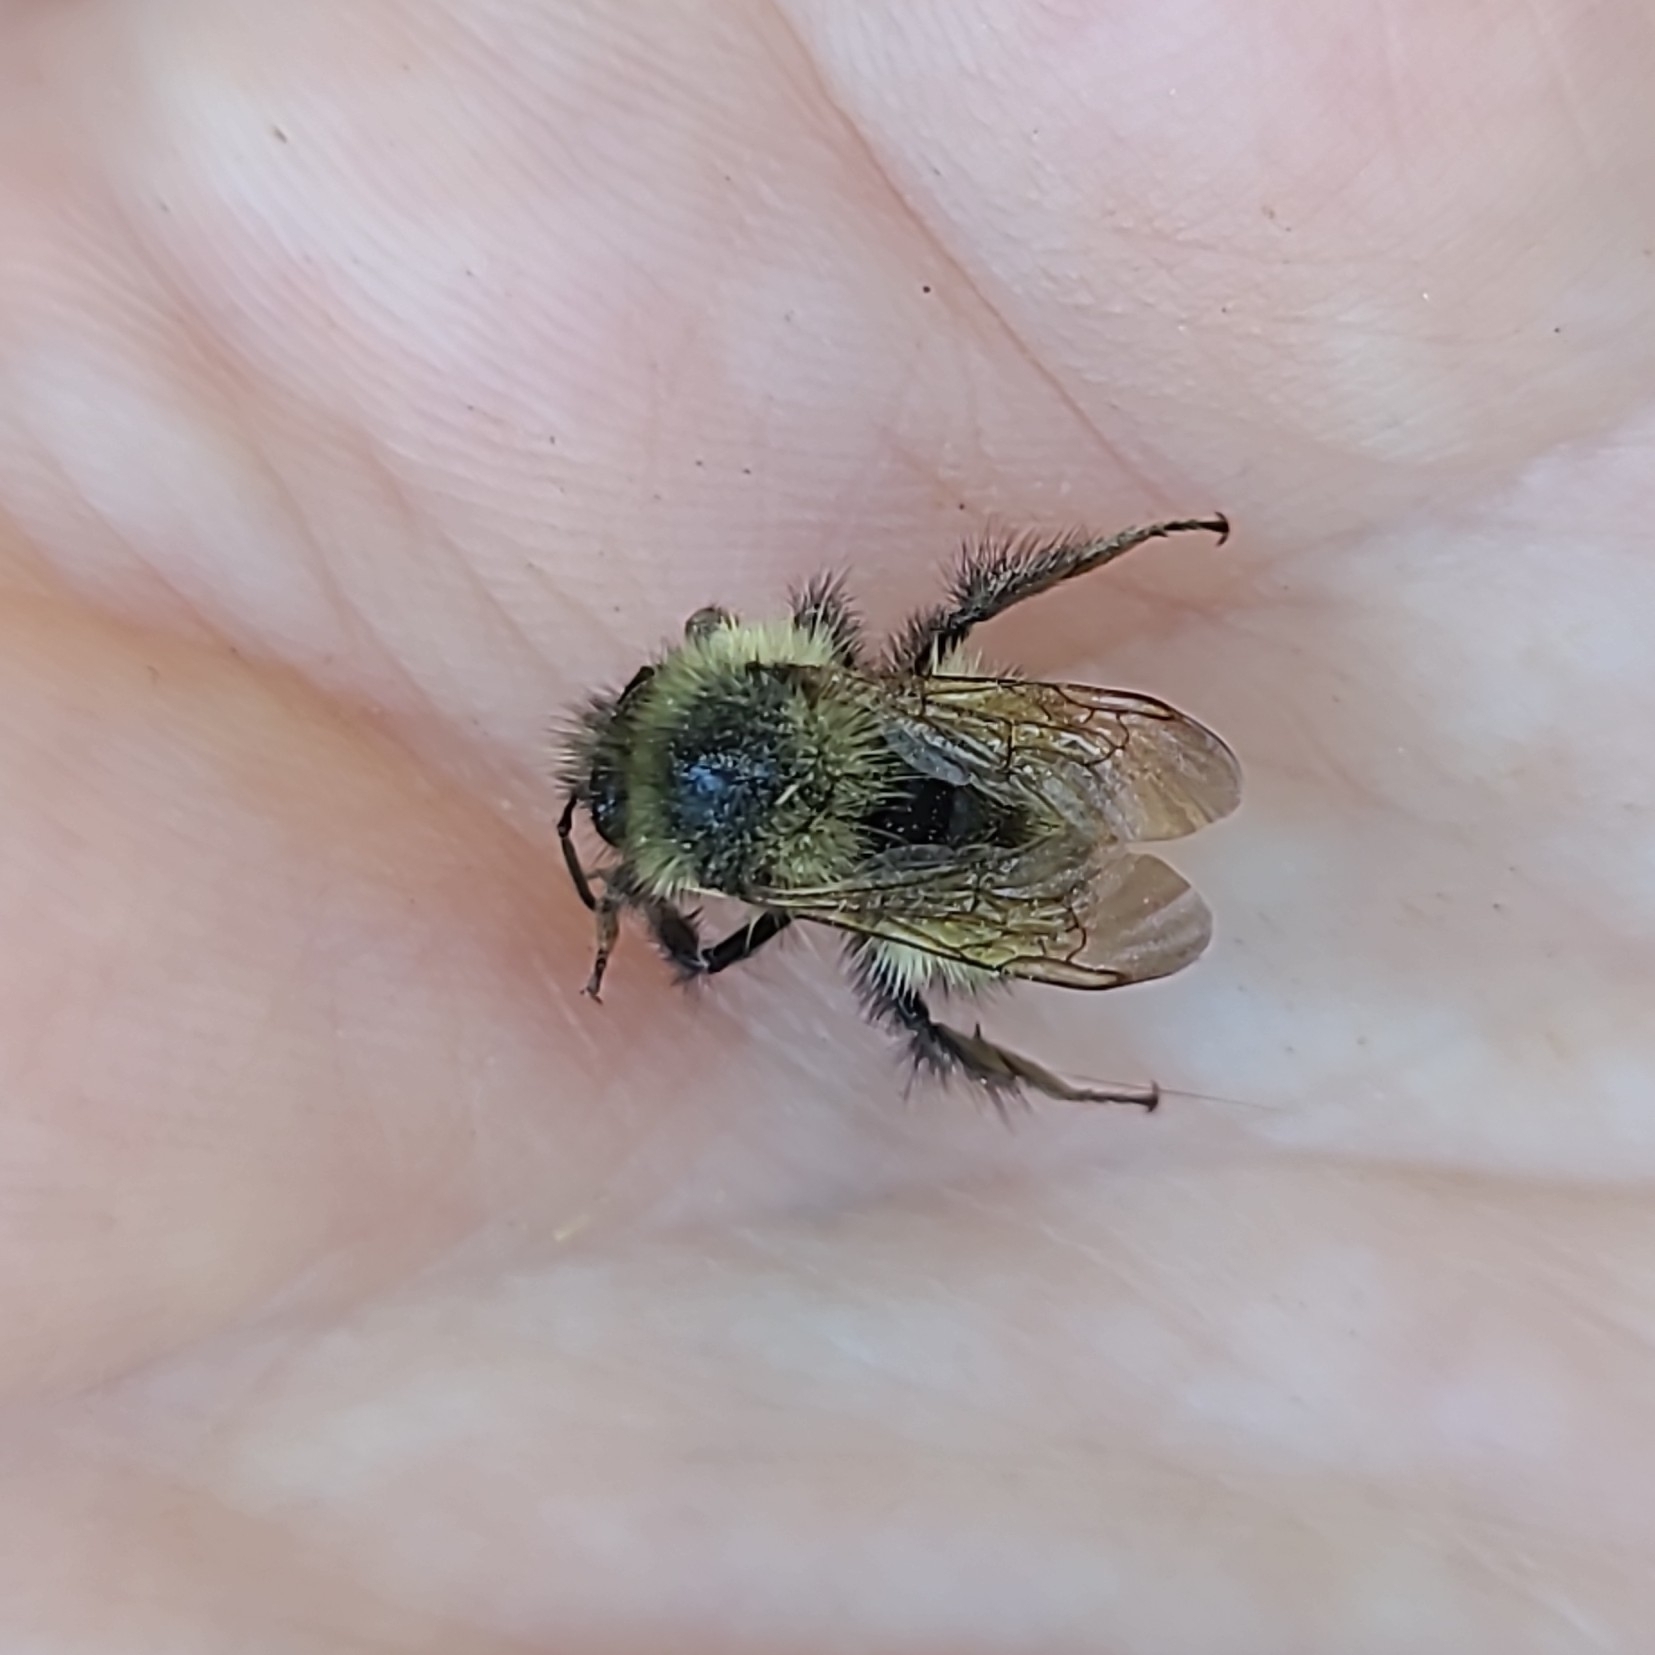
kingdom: Animalia
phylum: Arthropoda
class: Insecta
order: Hymenoptera
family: Apidae
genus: Bombus
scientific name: Bombus mixtus
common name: Fuzzy-horned bumble bee
